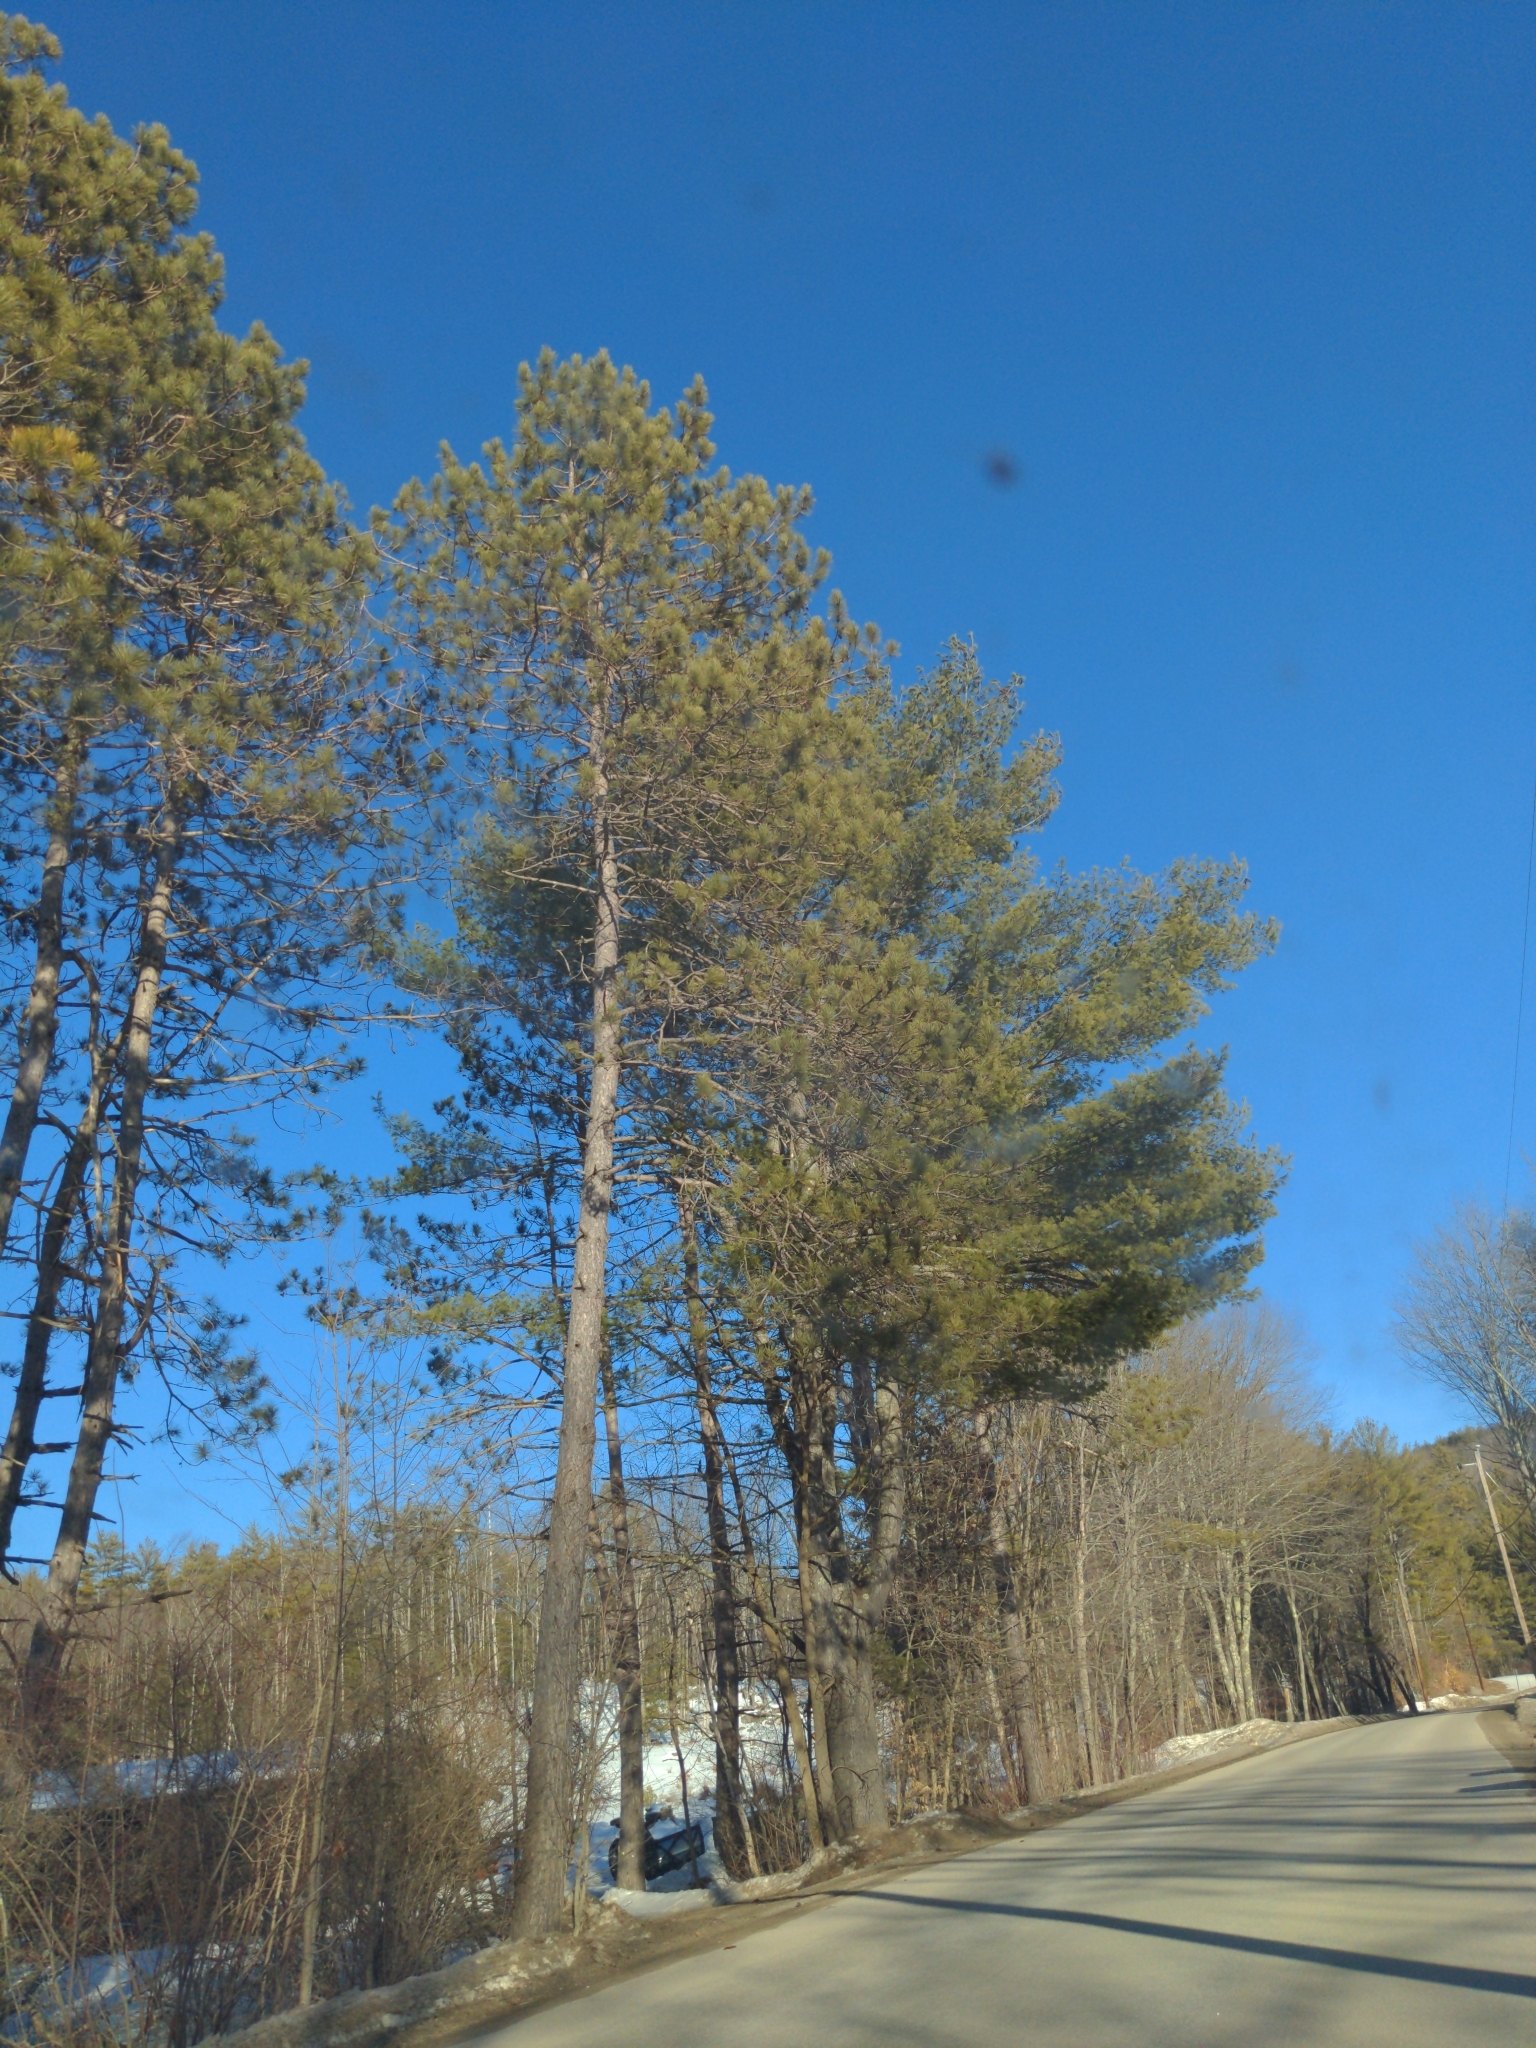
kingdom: Plantae
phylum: Tracheophyta
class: Pinopsida
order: Pinales
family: Pinaceae
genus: Pinus
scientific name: Pinus resinosa
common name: Norway pine
